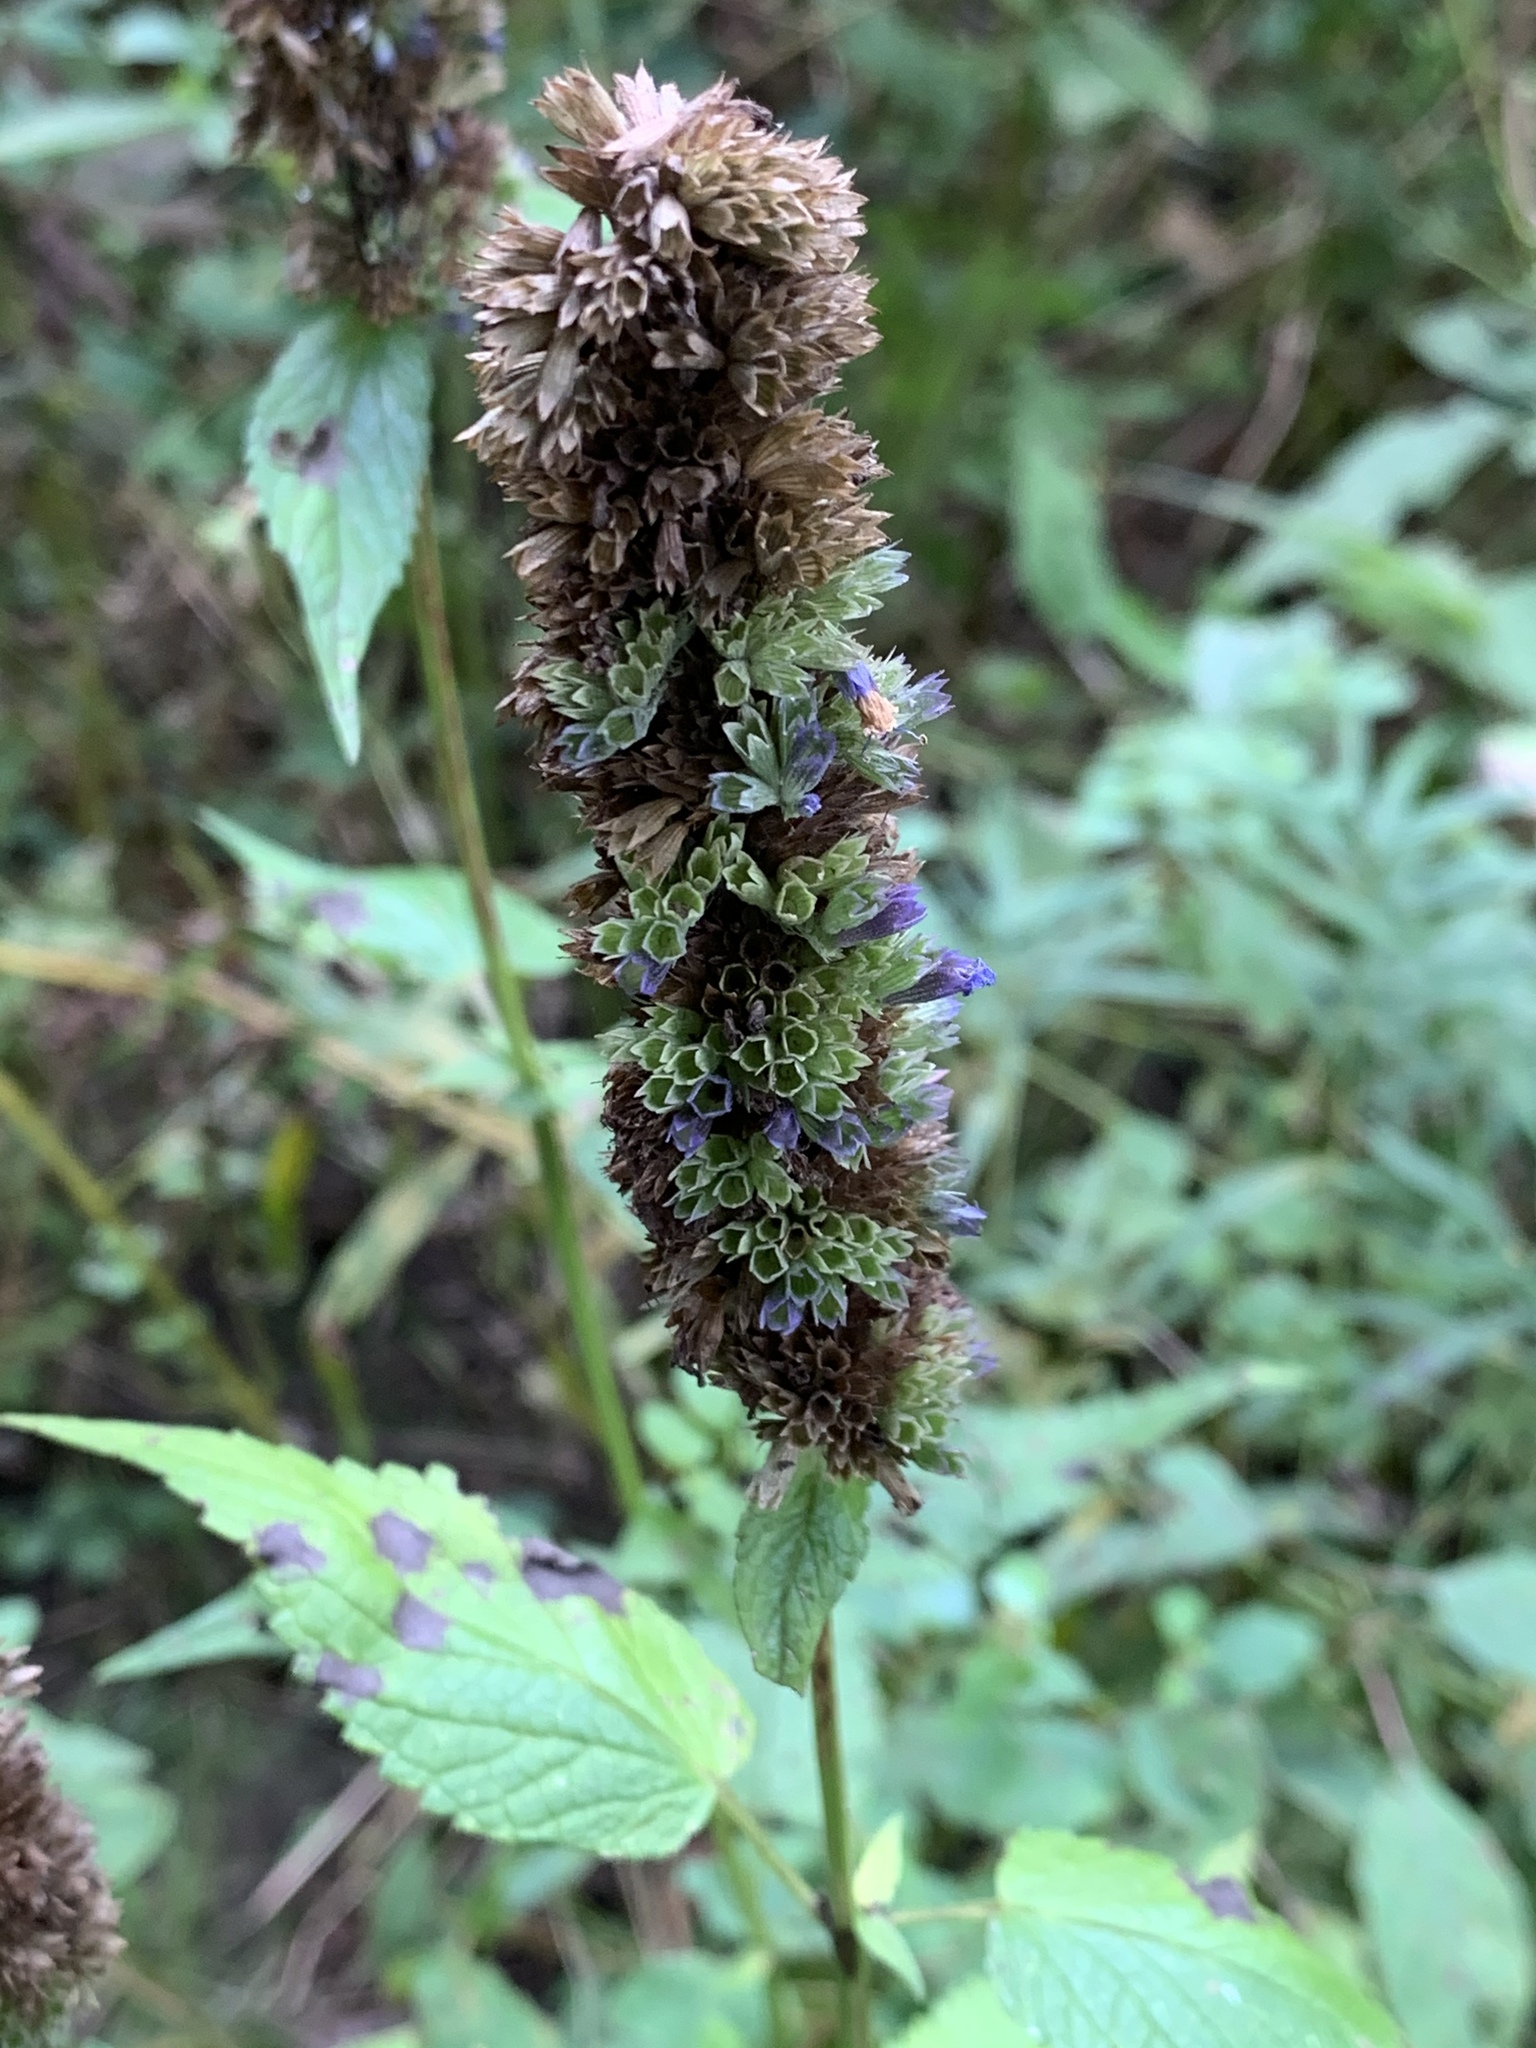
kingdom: Plantae
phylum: Tracheophyta
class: Magnoliopsida
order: Lamiales
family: Lamiaceae
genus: Agastache
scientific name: Agastache foeniculum
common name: Anise hyssop
